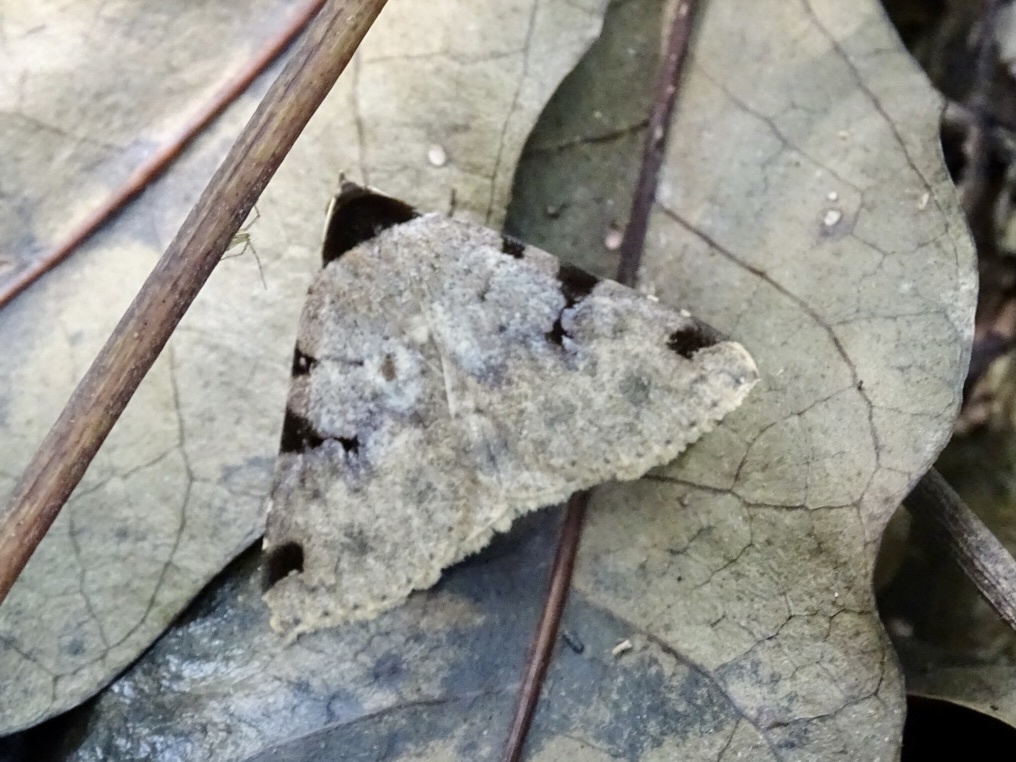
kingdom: Animalia
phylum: Arthropoda
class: Insecta
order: Lepidoptera
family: Erebidae
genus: Rema
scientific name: Rema costimacula
